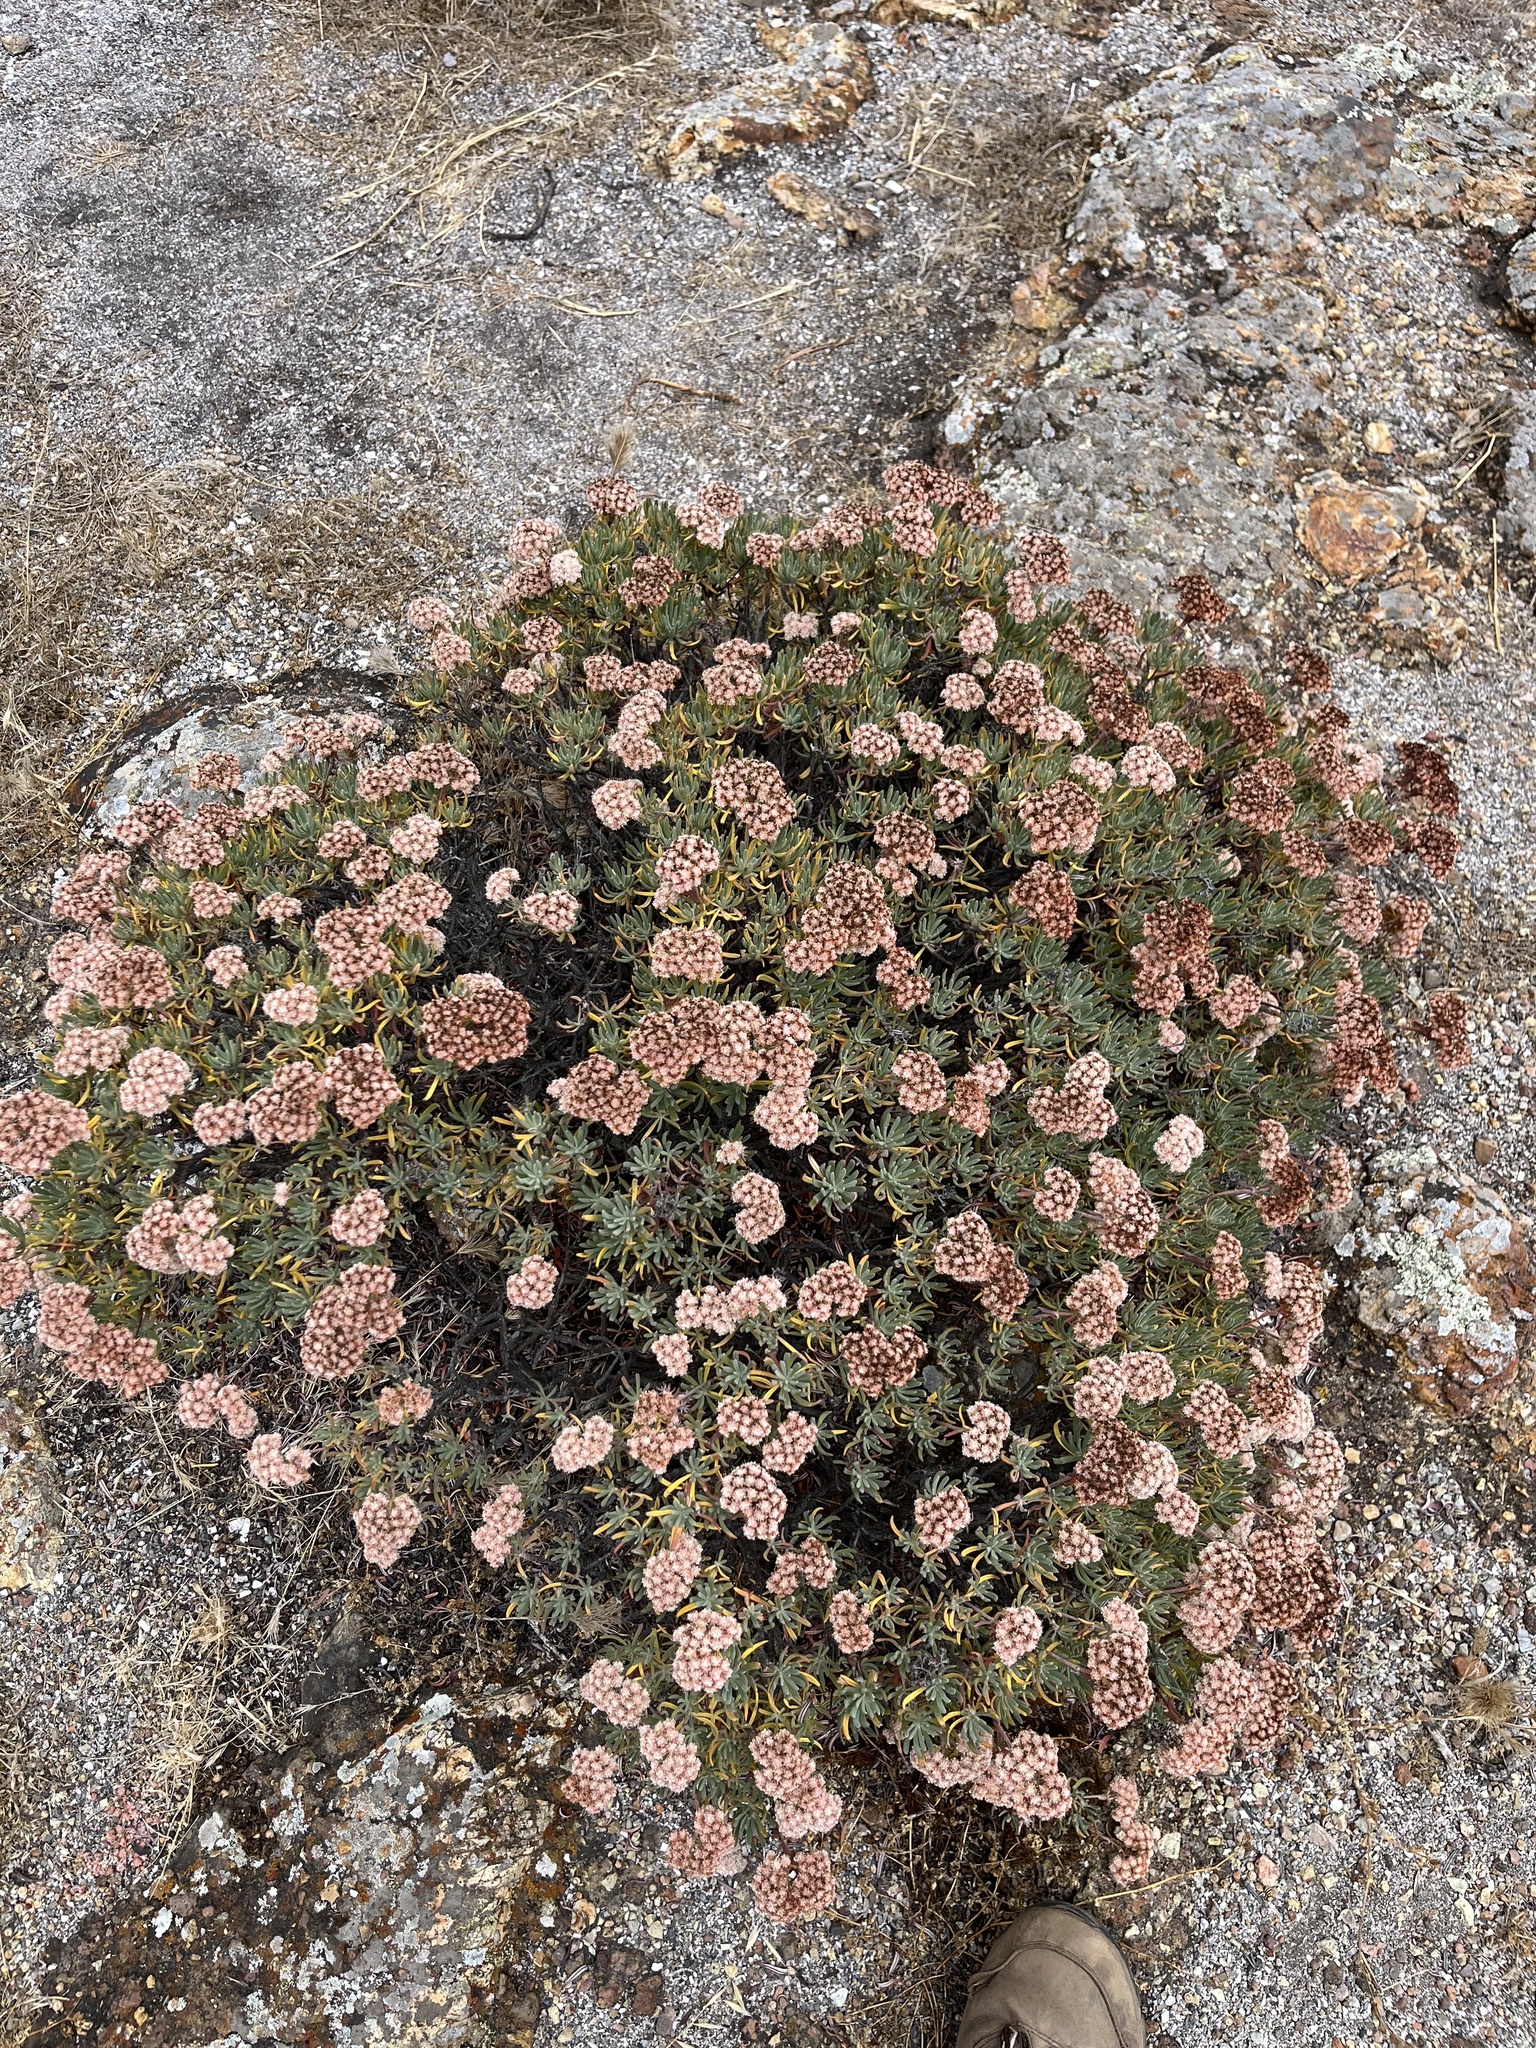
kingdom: Plantae
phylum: Tracheophyta
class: Magnoliopsida
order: Caryophyllales
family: Polygonaceae
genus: Eriogonum
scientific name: Eriogonum arborescens
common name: Island buckwheat
